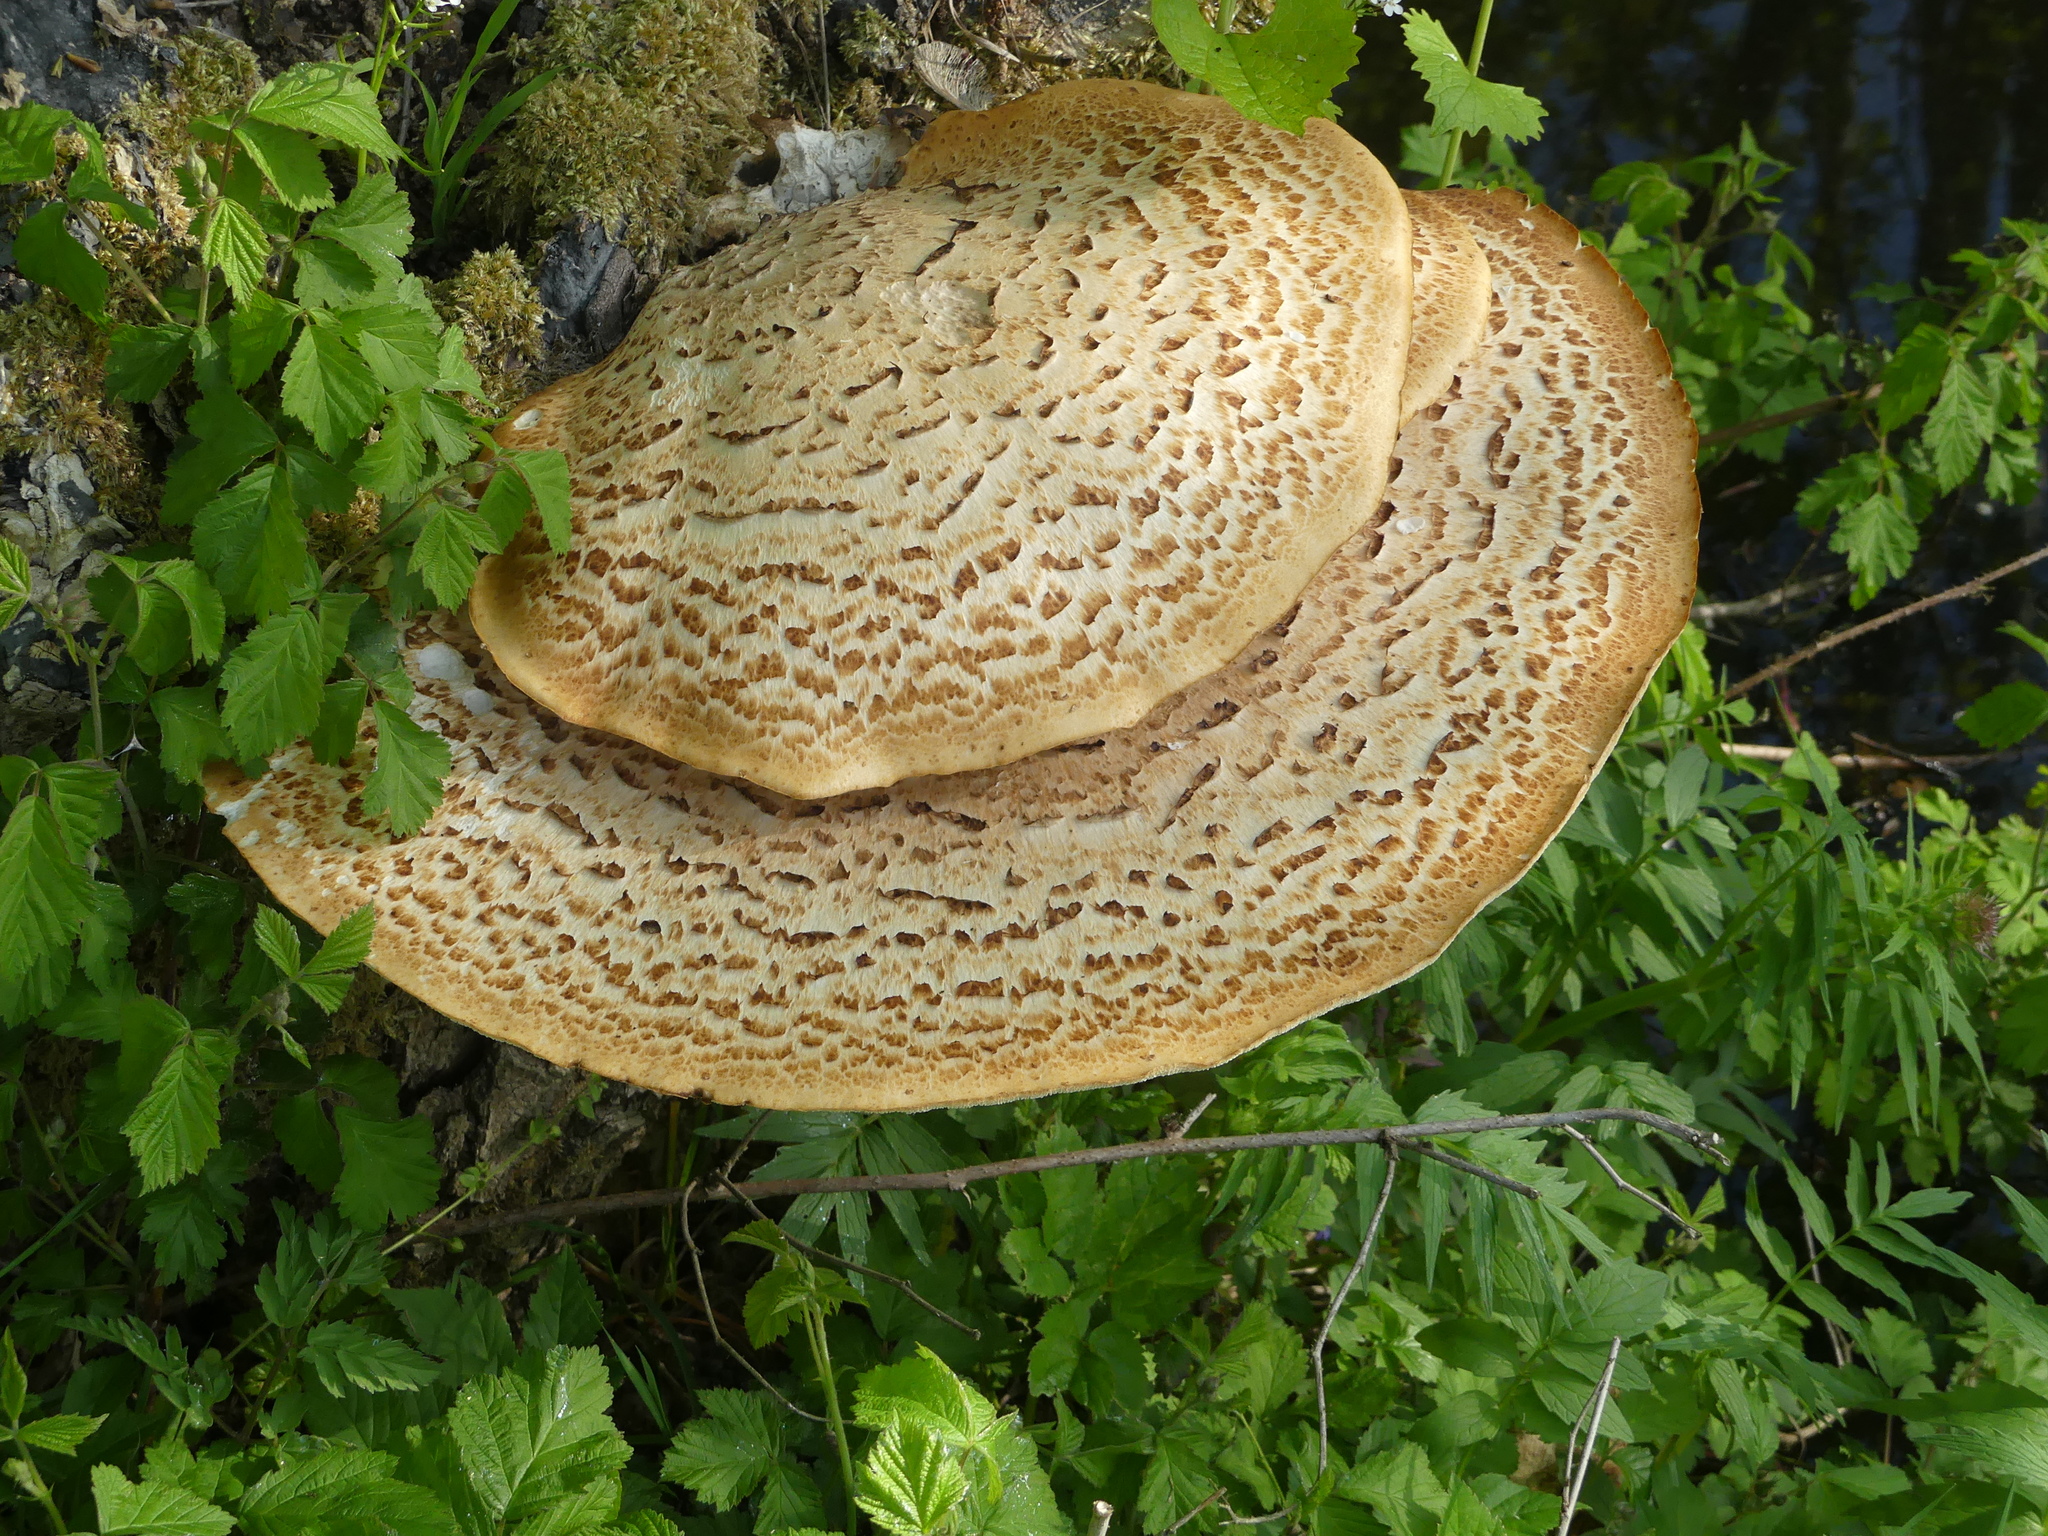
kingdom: Fungi
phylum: Basidiomycota
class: Agaricomycetes
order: Polyporales
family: Polyporaceae
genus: Cerioporus
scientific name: Cerioporus squamosus
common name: Dryad's saddle
